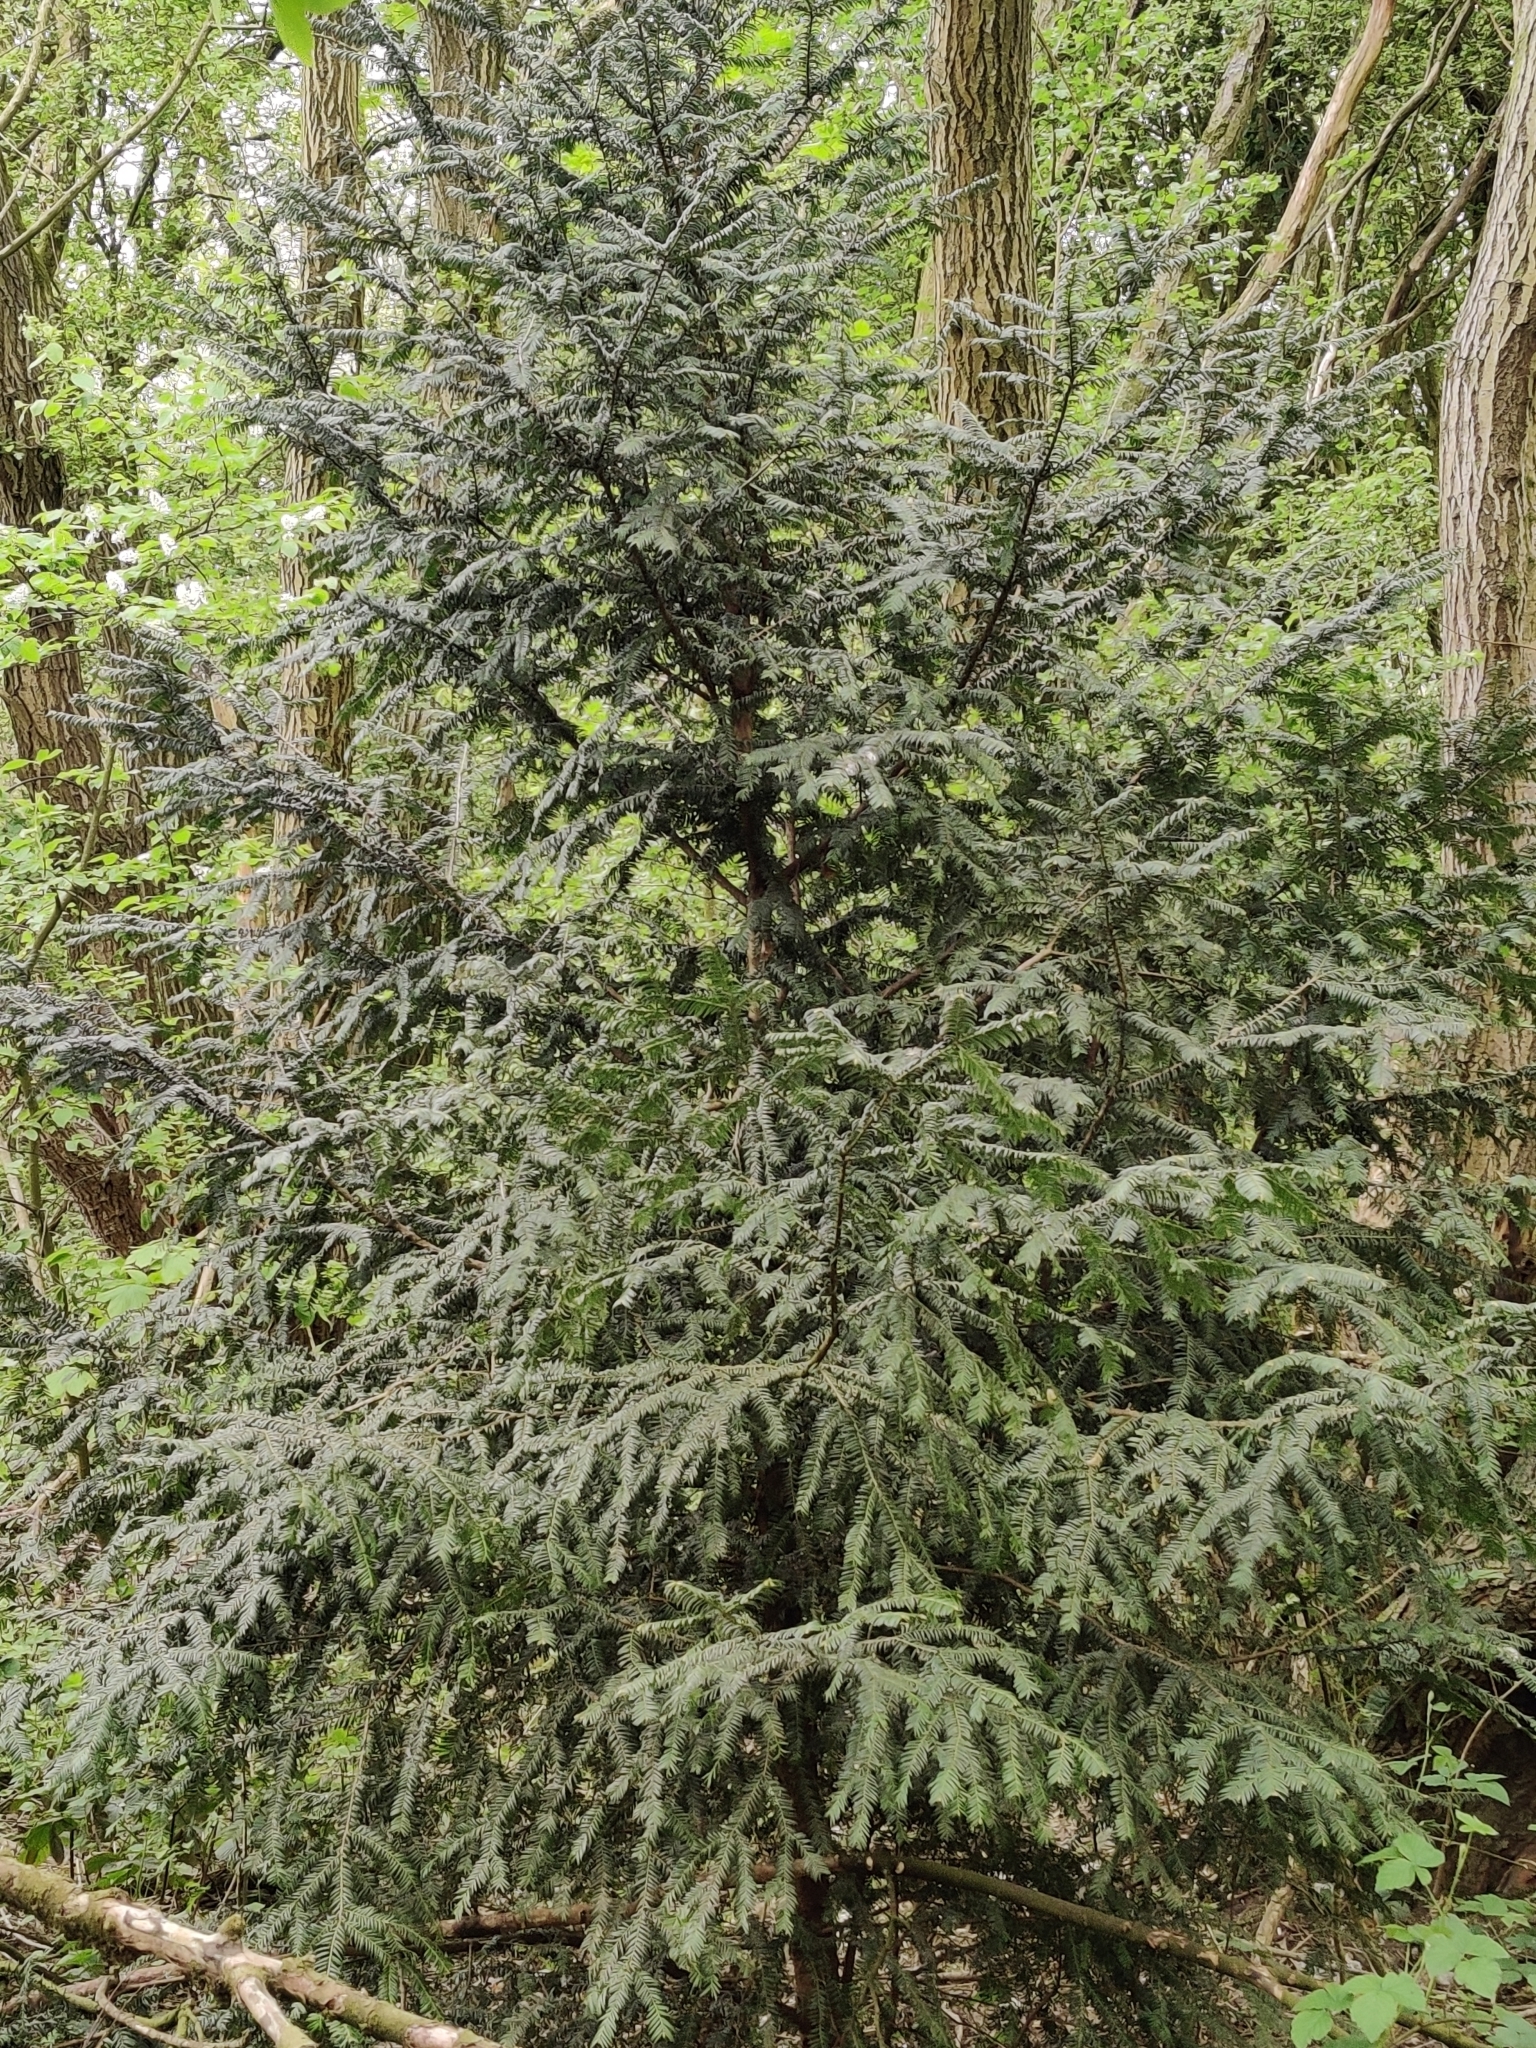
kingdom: Plantae
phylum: Tracheophyta
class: Pinopsida
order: Pinales
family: Taxaceae
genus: Taxus
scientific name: Taxus baccata
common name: Yew
